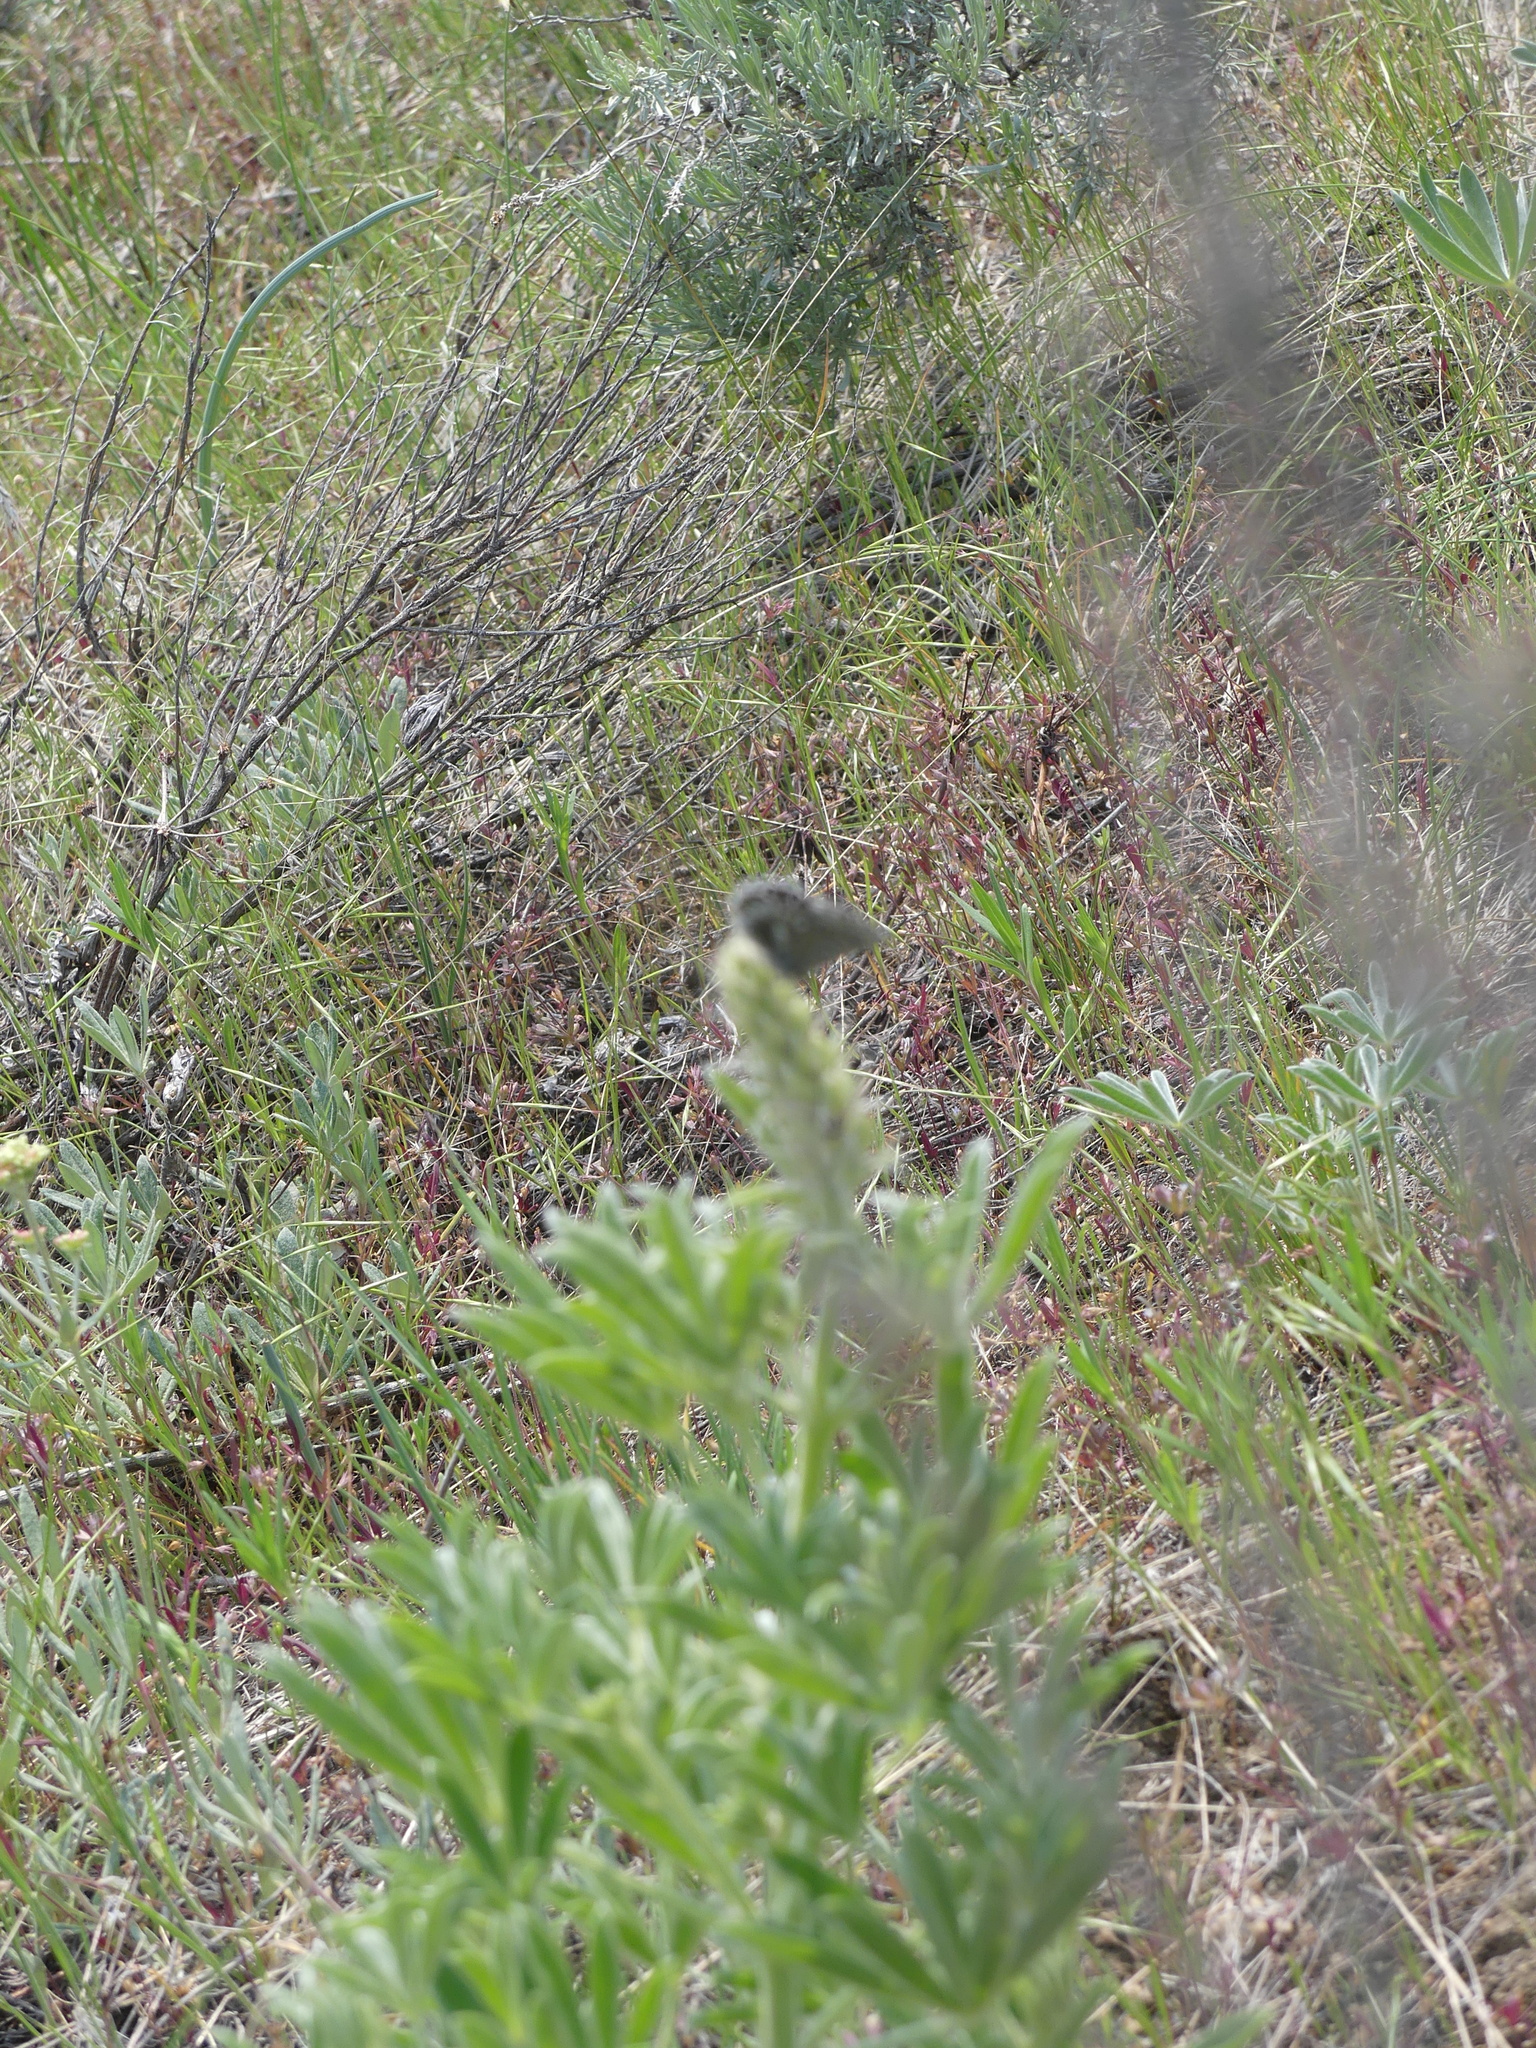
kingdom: Animalia
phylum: Arthropoda
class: Insecta
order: Lepidoptera
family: Lycaenidae
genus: Glaucopsyche
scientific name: Glaucopsyche piasus
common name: Arrowhead blue
